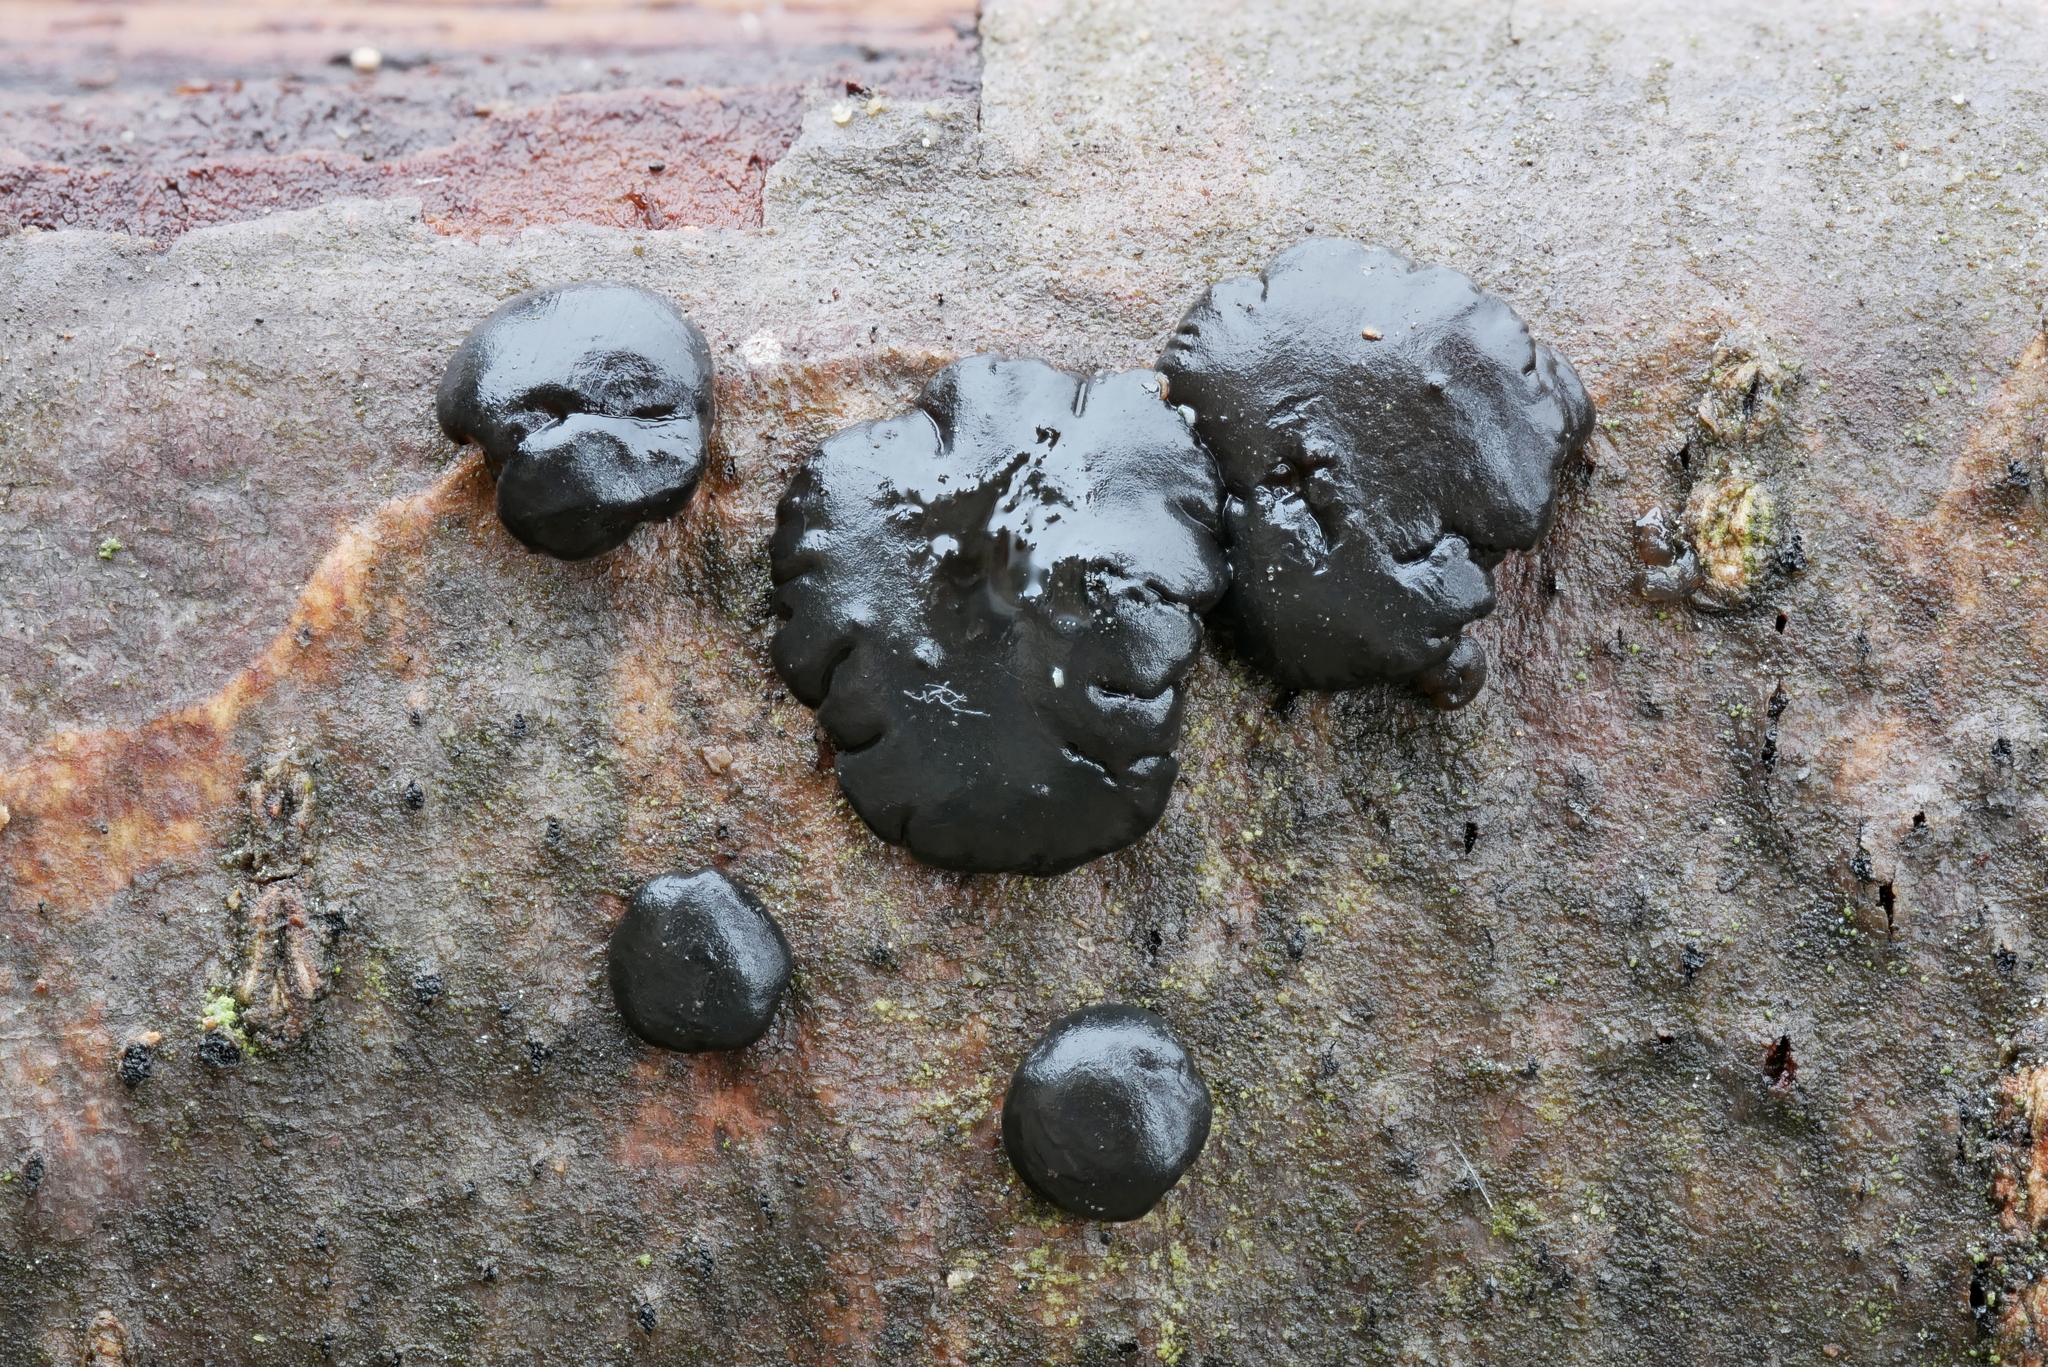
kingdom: Fungi
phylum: Basidiomycota
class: Agaricomycetes
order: Auriculariales
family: Auriculariaceae
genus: Exidia
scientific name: Exidia nigricans
